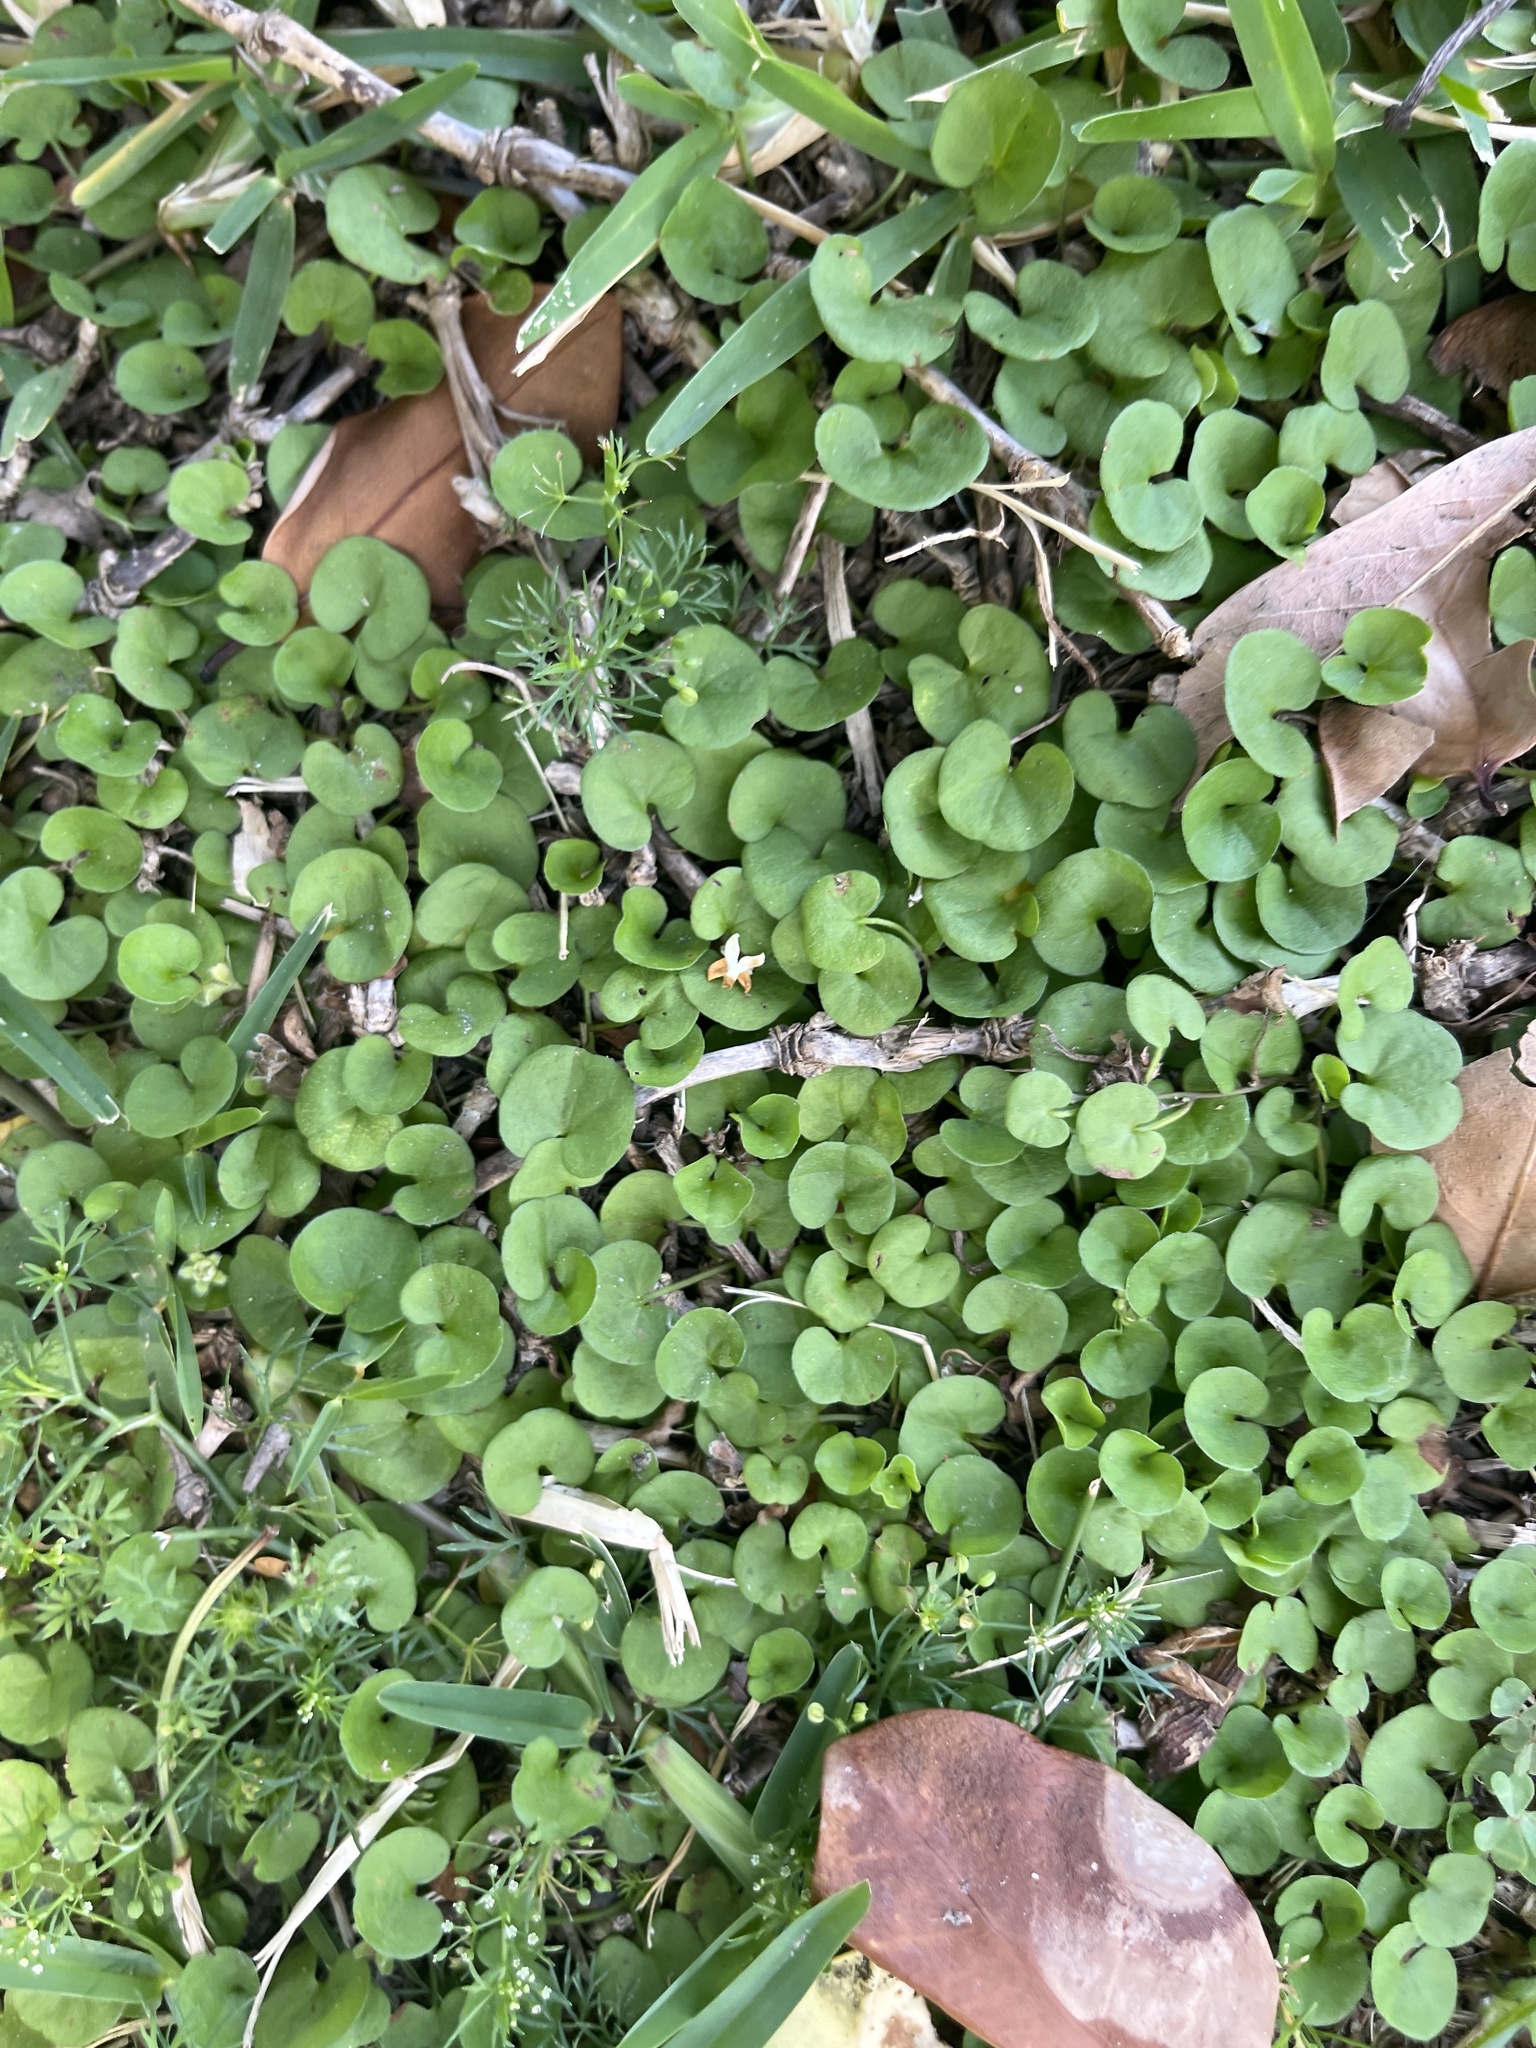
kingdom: Plantae
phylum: Tracheophyta
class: Magnoliopsida
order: Solanales
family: Convolvulaceae
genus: Dichondra
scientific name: Dichondra carolinensis
